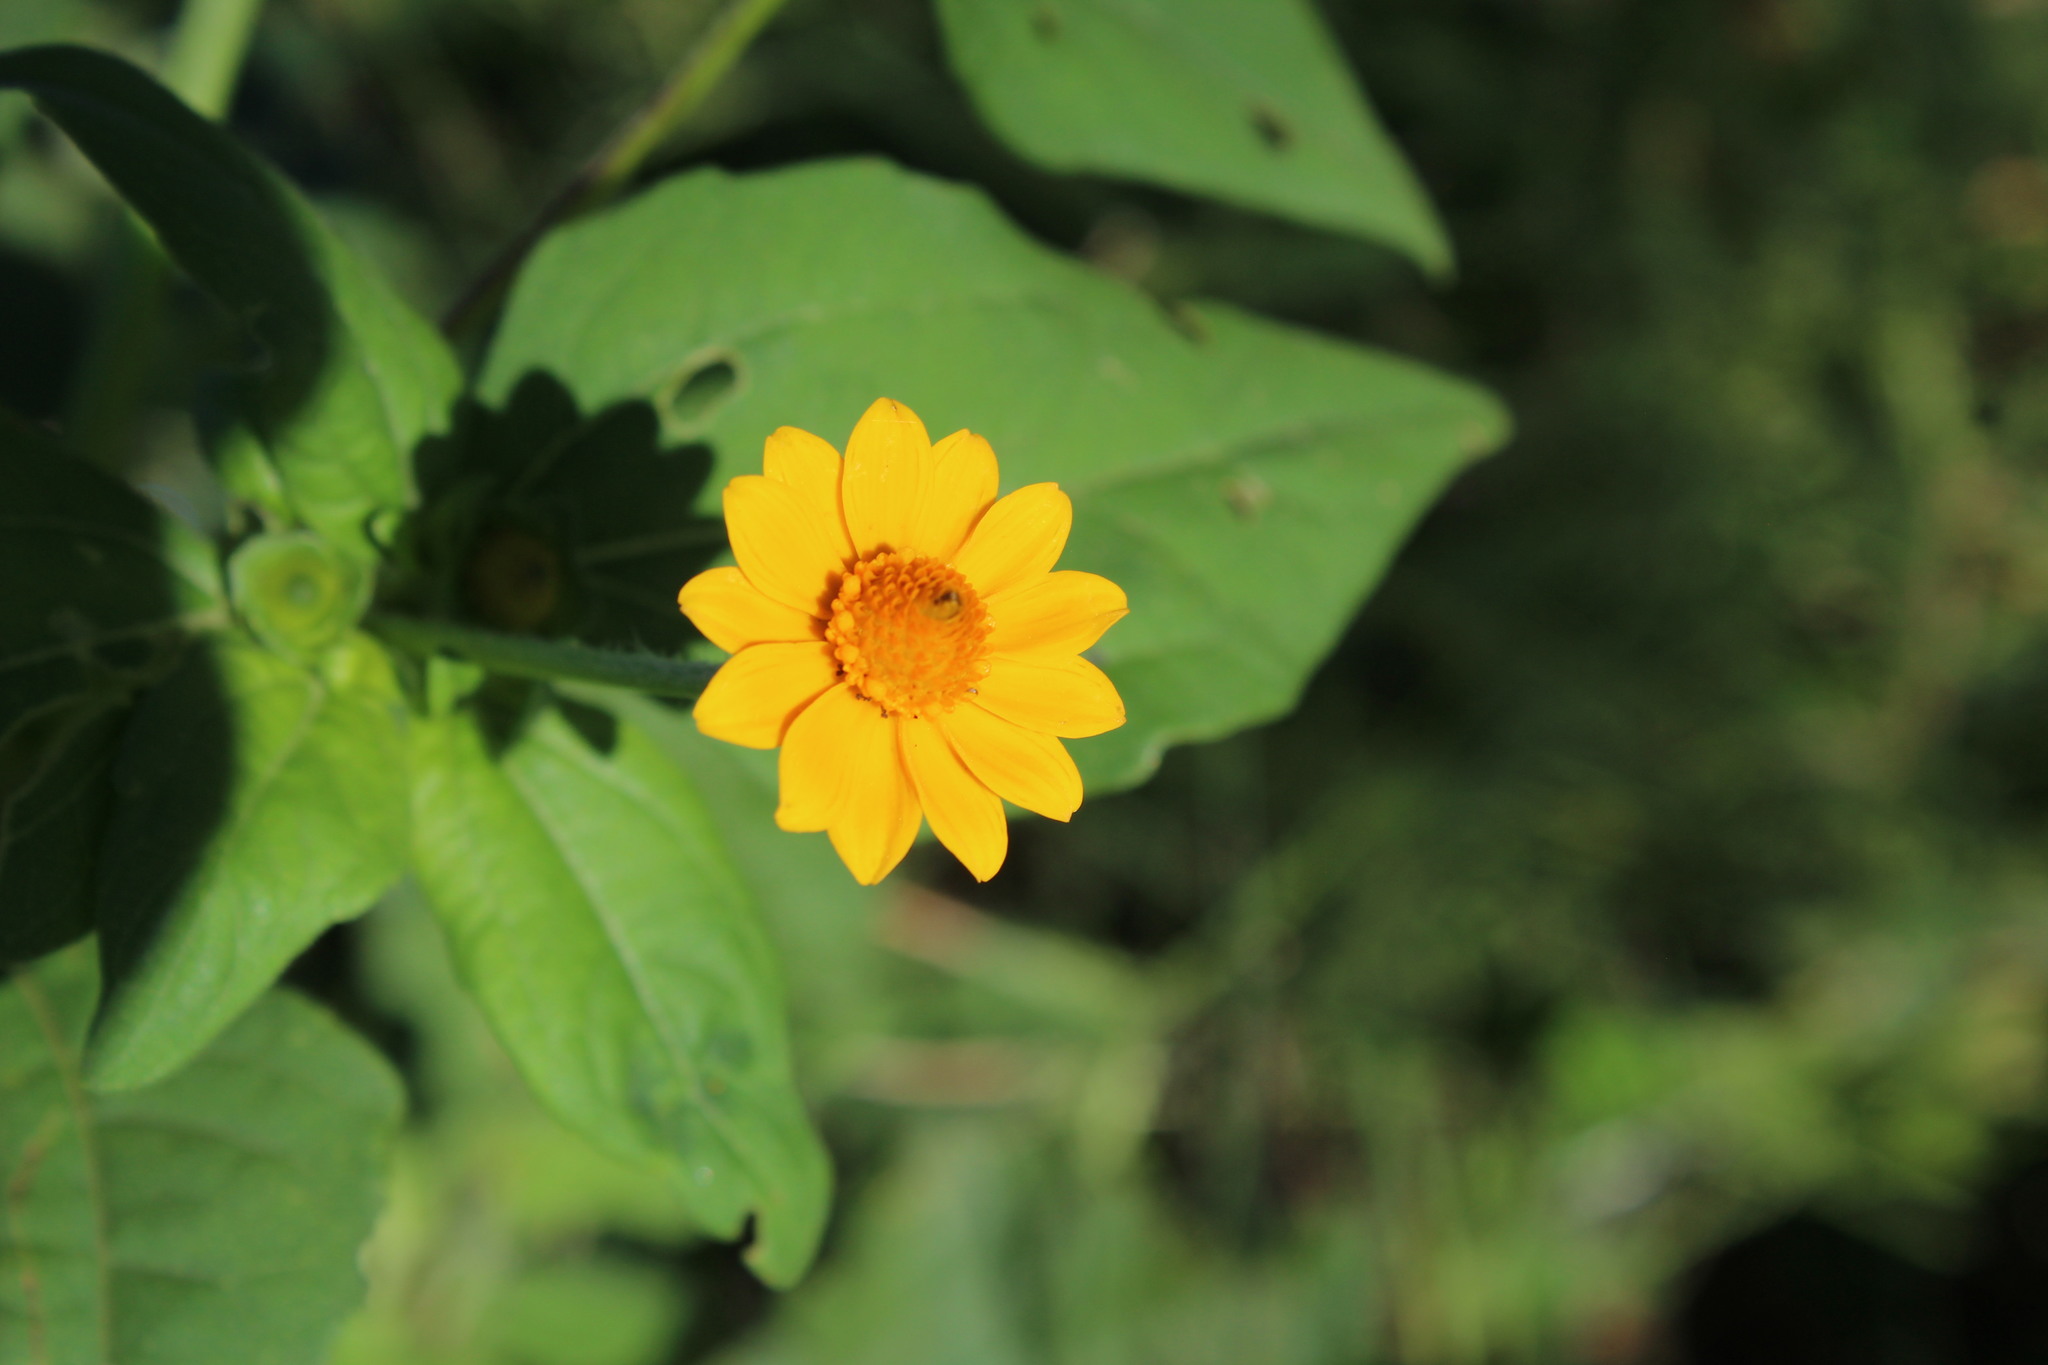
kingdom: Plantae
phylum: Tracheophyta
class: Magnoliopsida
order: Asterales
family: Asteraceae
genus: Melampodium
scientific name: Melampodium divaricatum
